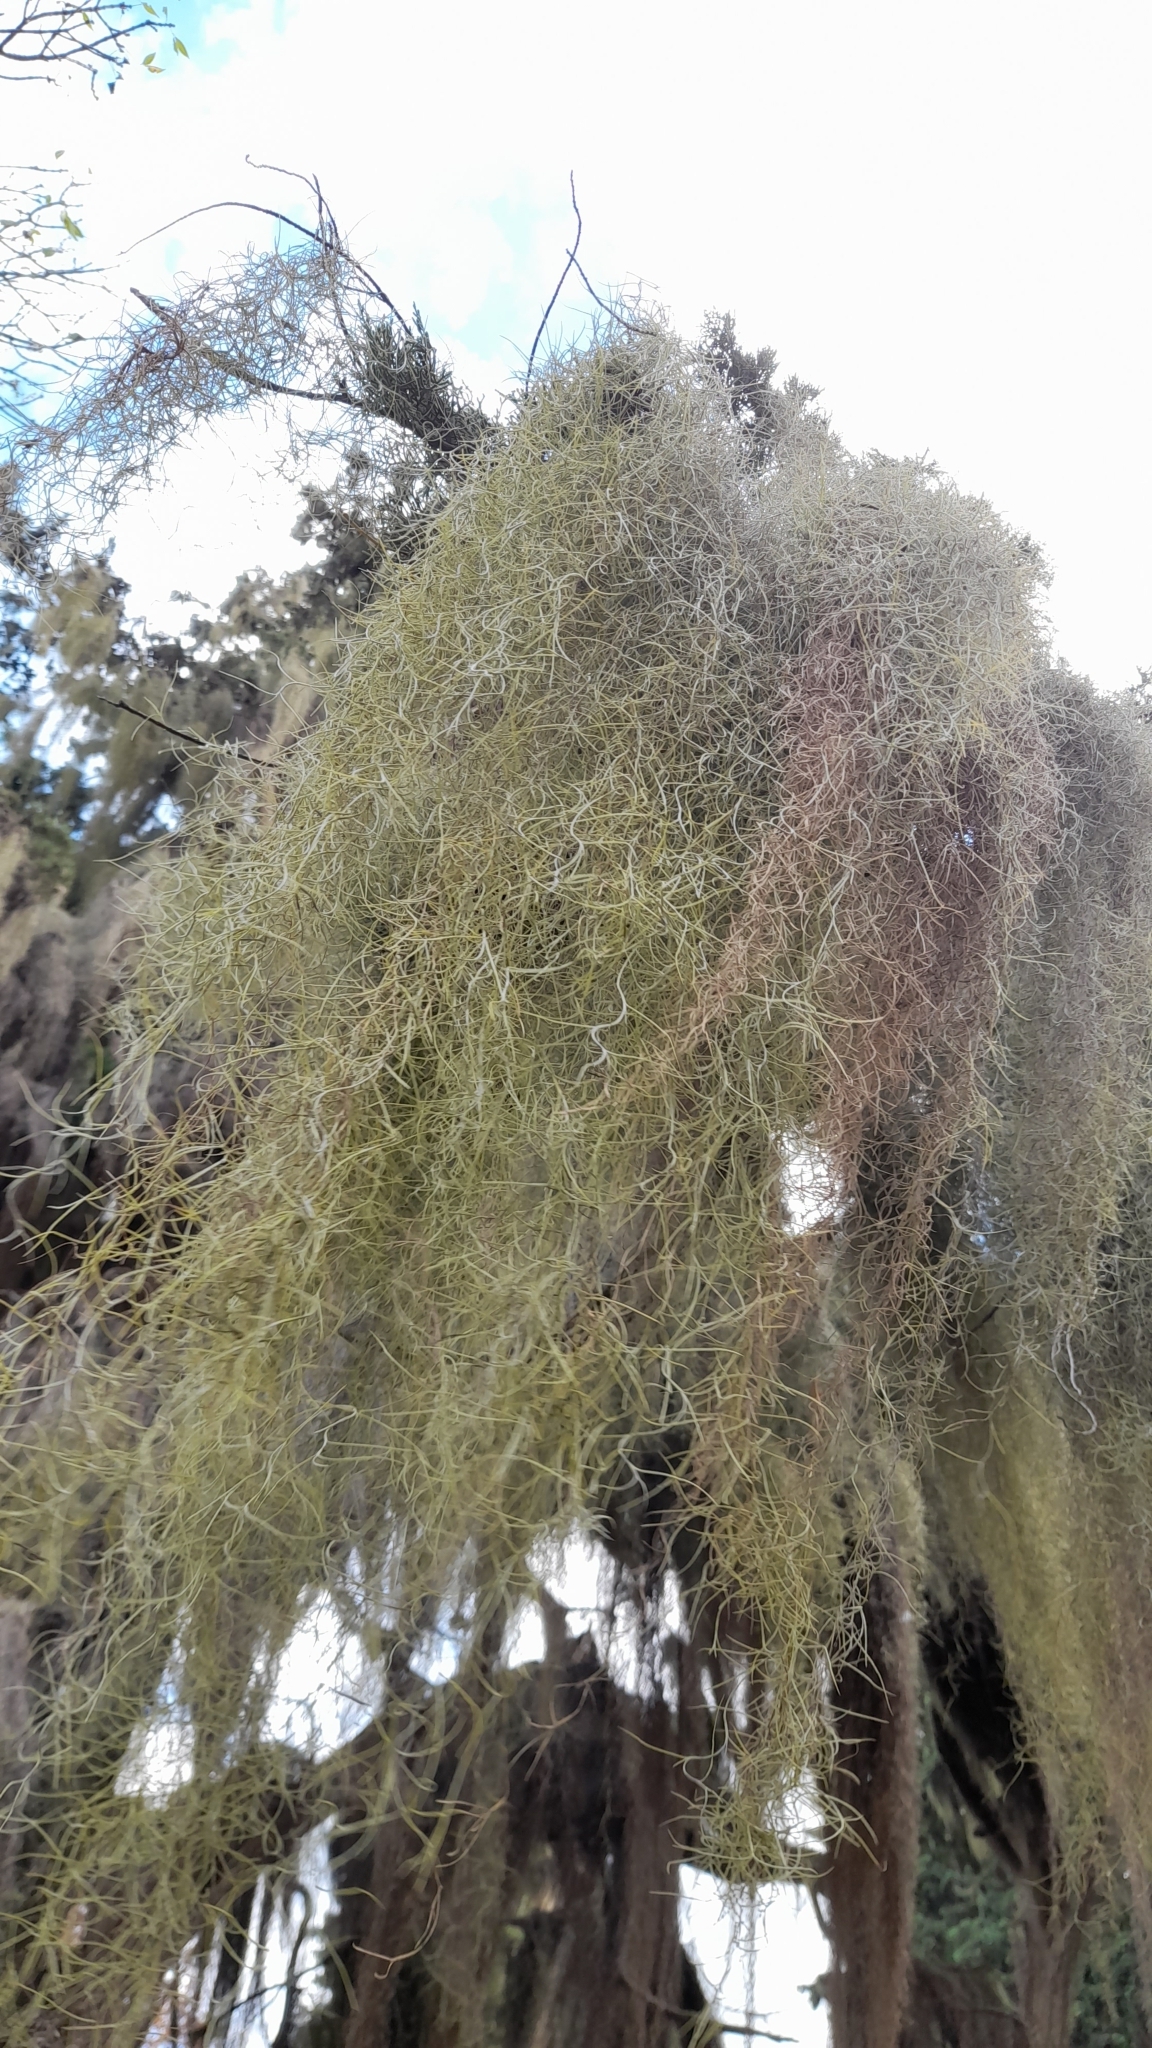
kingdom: Plantae
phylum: Tracheophyta
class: Liliopsida
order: Poales
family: Bromeliaceae
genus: Tillandsia
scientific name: Tillandsia usneoides
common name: Spanish moss
